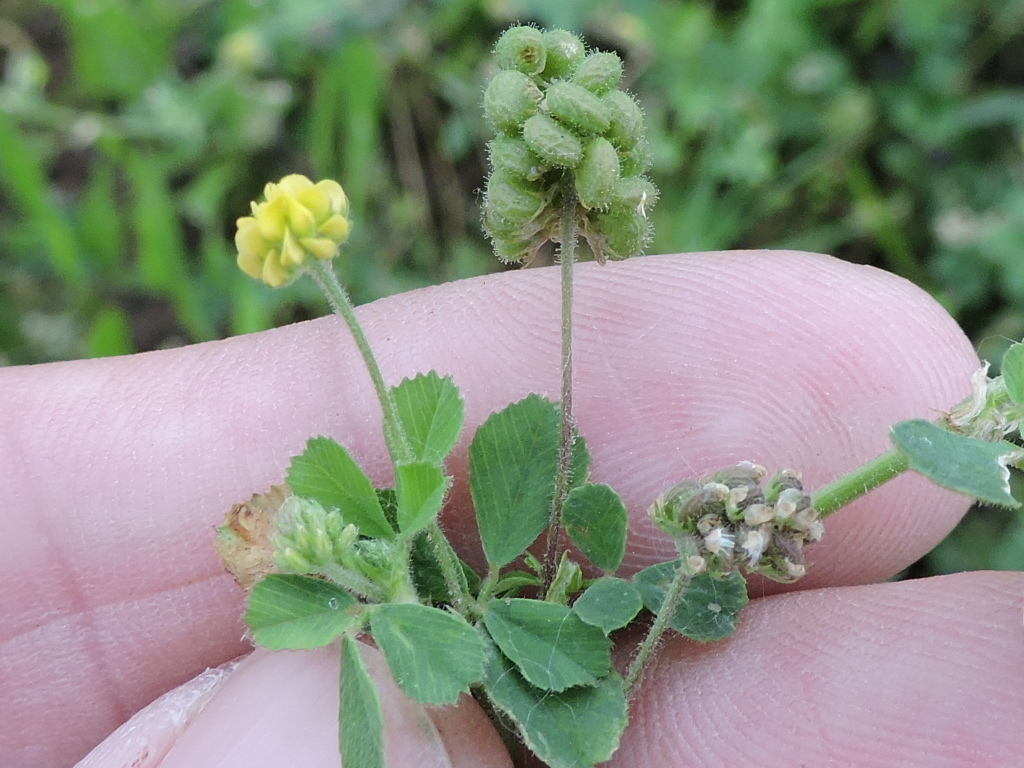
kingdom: Plantae
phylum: Tracheophyta
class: Magnoliopsida
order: Fabales
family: Fabaceae
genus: Medicago
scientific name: Medicago lupulina
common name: Black medick
